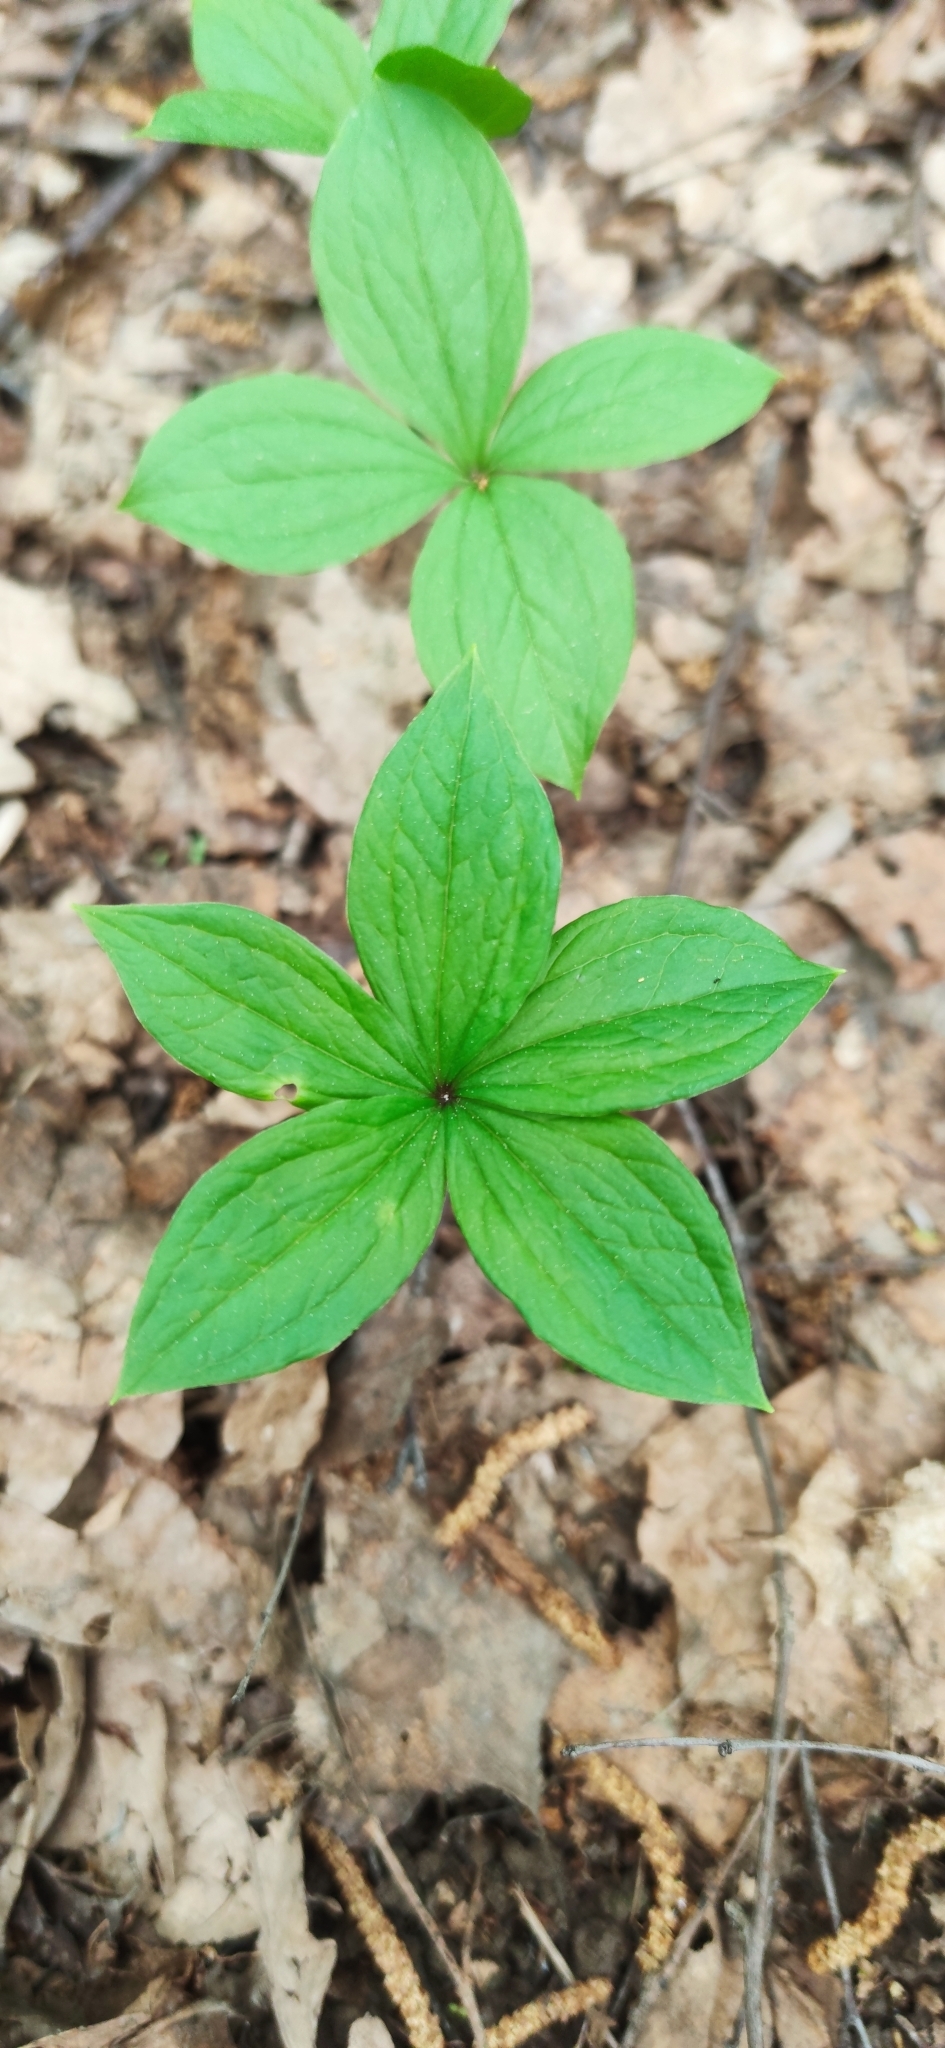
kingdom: Plantae
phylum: Tracheophyta
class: Liliopsida
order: Liliales
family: Melanthiaceae
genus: Paris
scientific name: Paris quadrifolia
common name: Herb-paris
